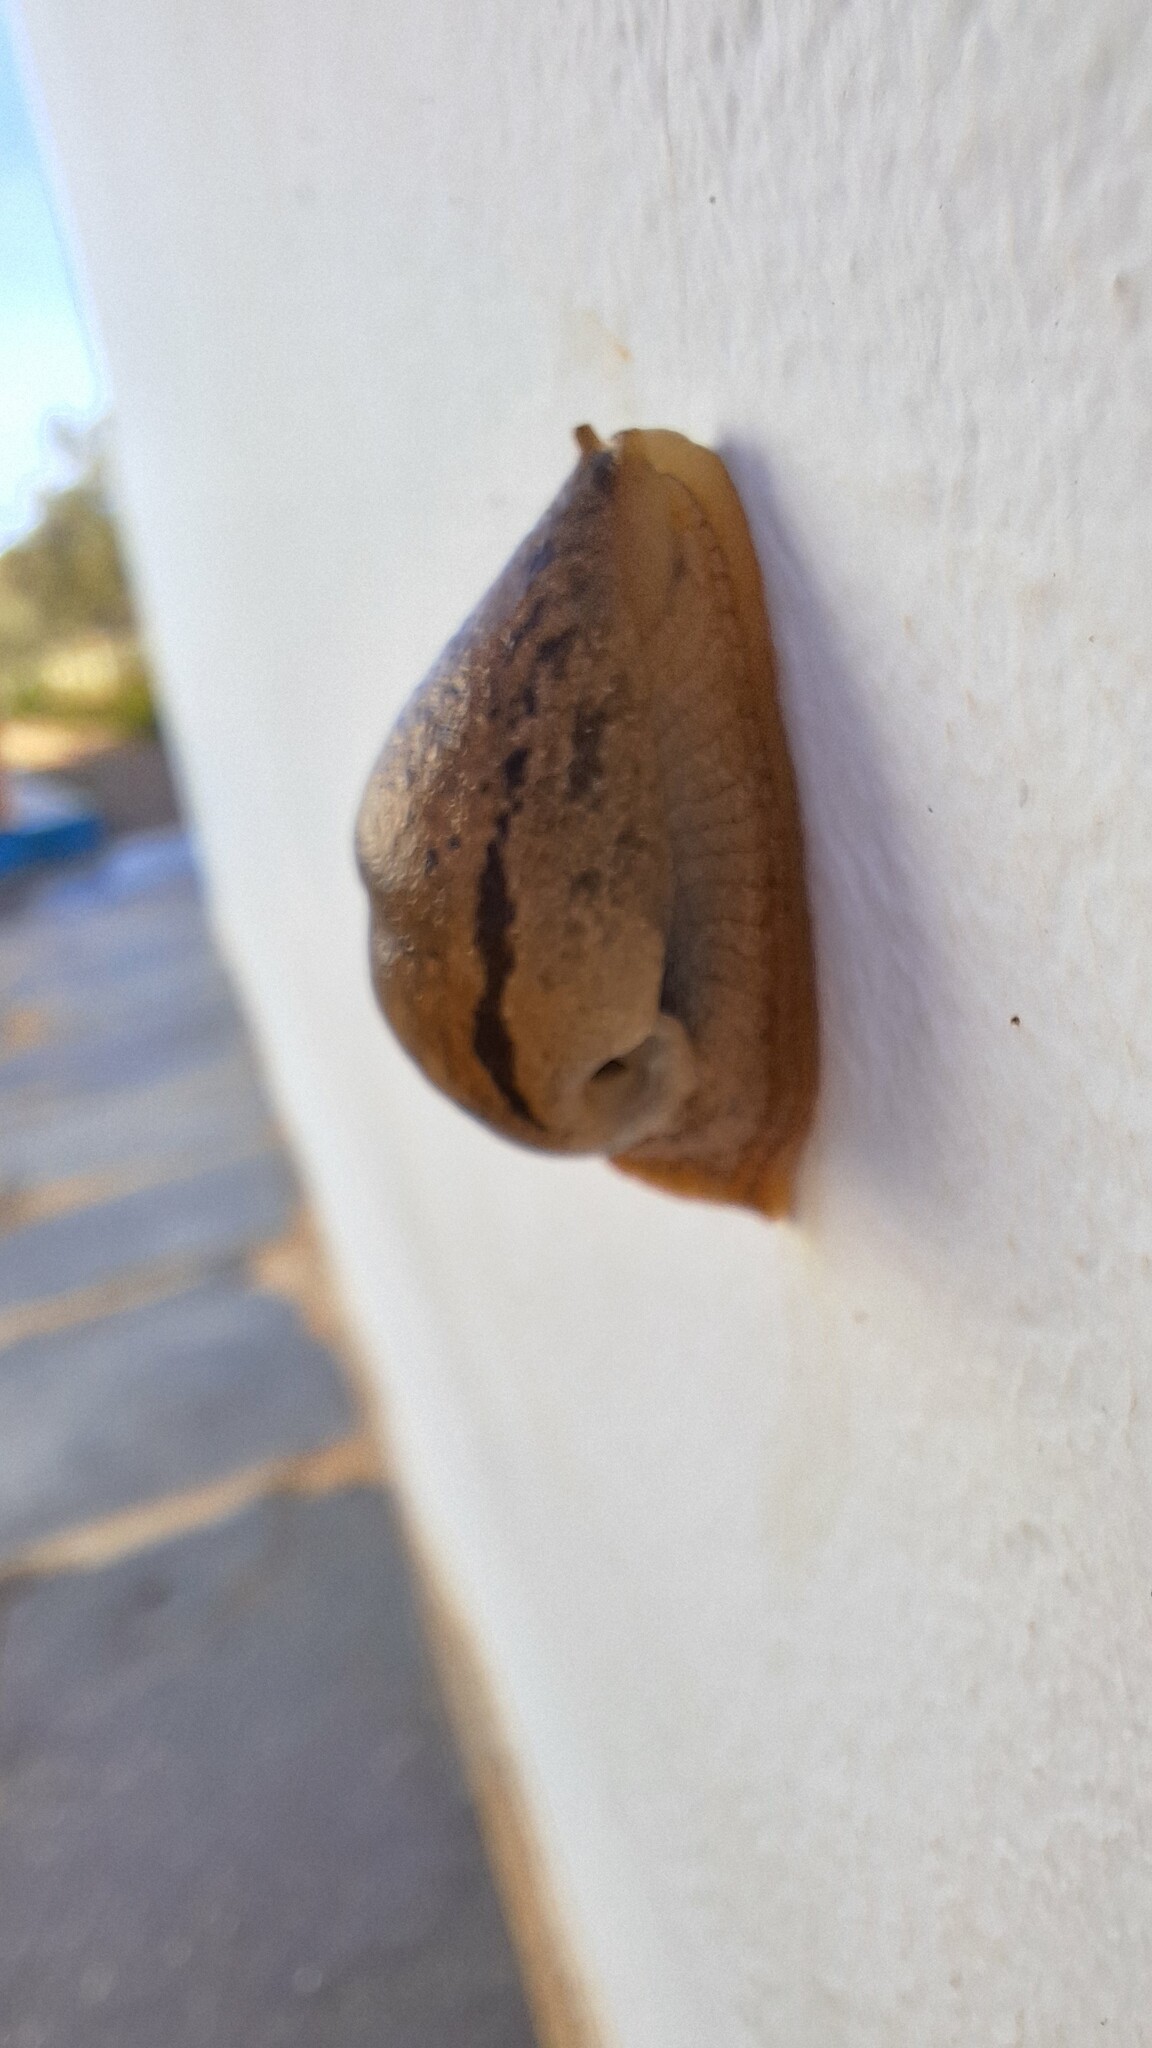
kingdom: Animalia
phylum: Mollusca
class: Gastropoda
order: Stylommatophora
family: Parmacellidae
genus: Drusia
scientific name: Drusia valenciennii
